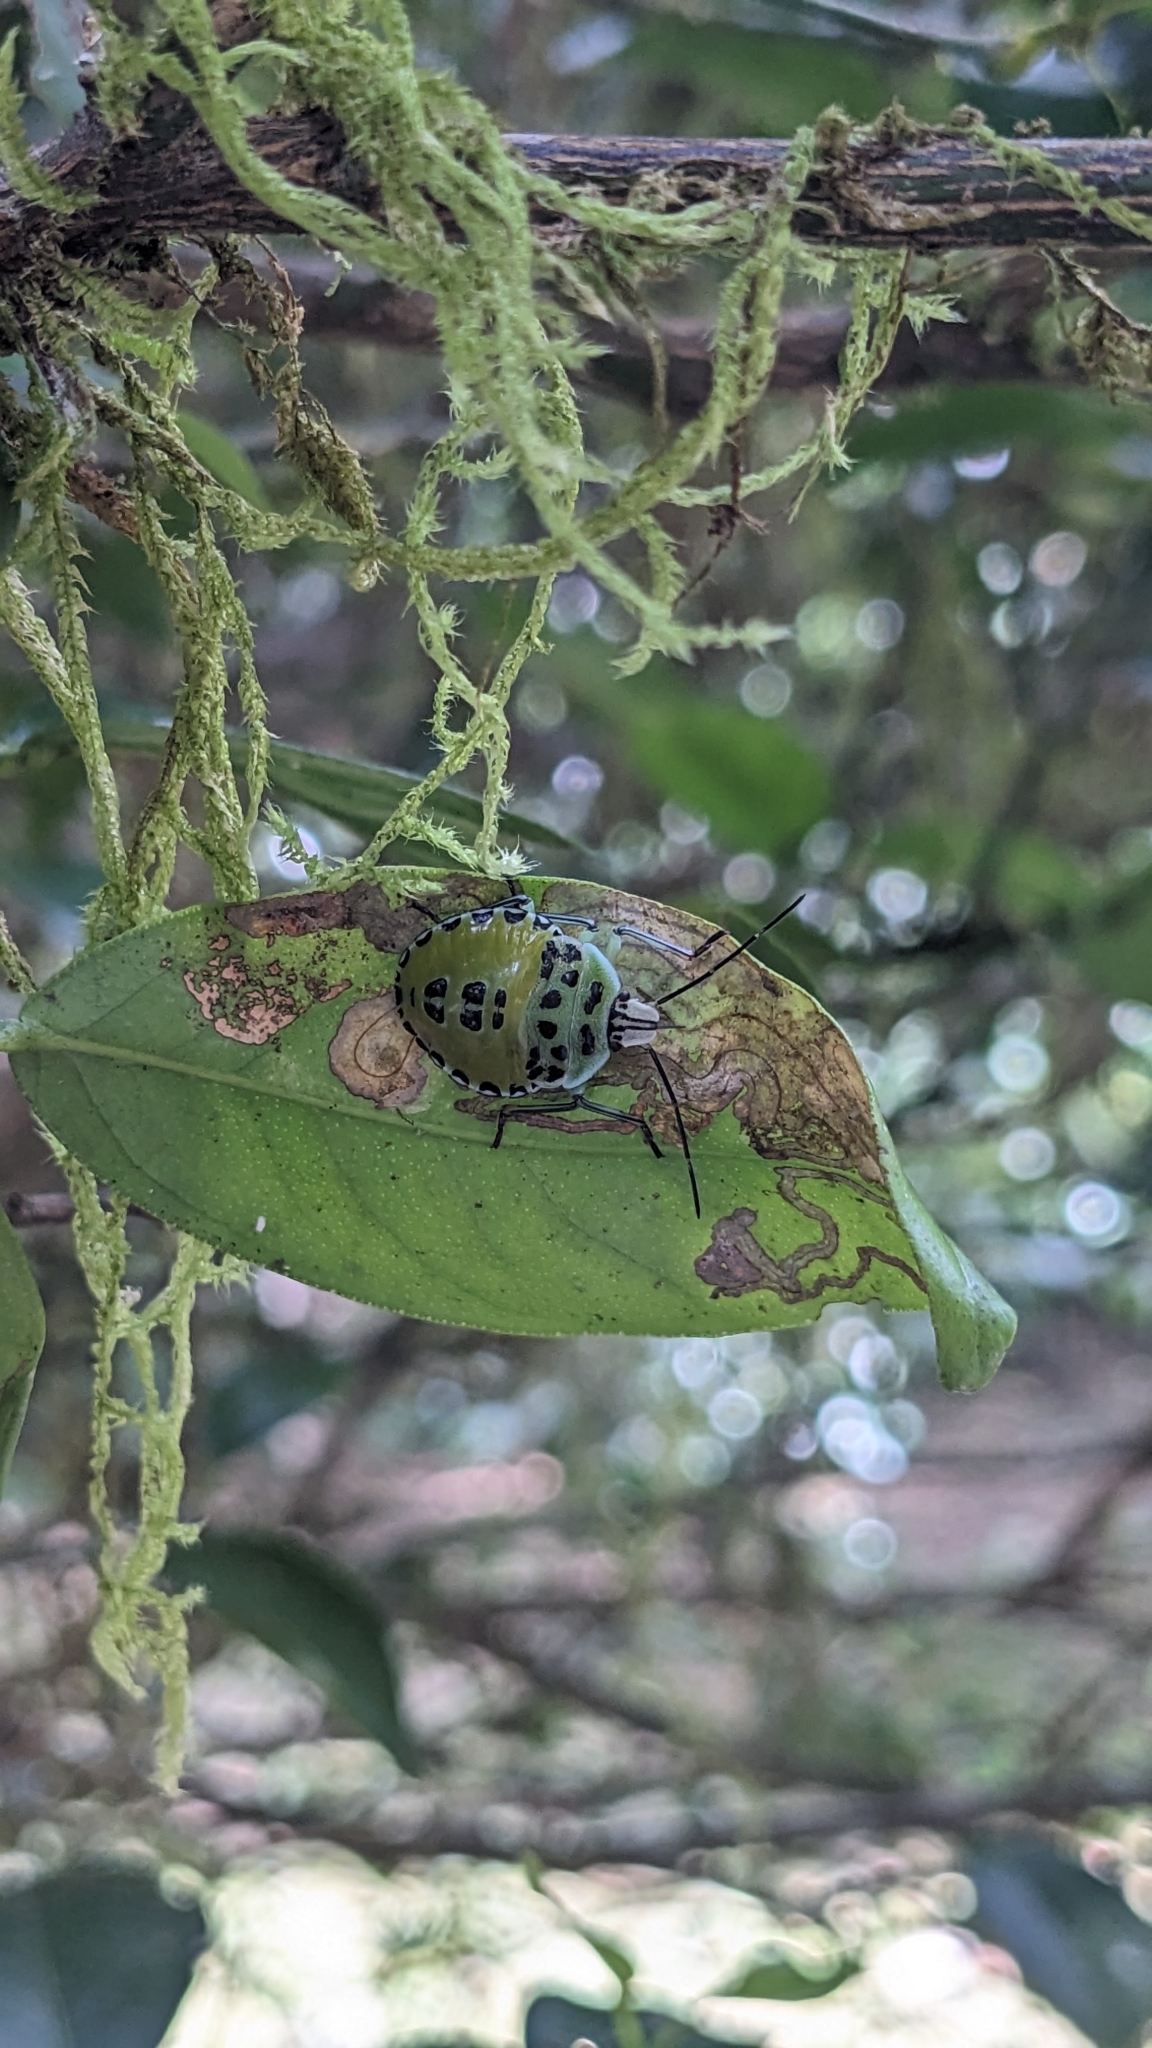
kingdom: Animalia
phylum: Arthropoda
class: Insecta
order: Hemiptera
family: Pentatomidae
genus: Rhynchocoris
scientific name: Rhynchocoris humeralis
